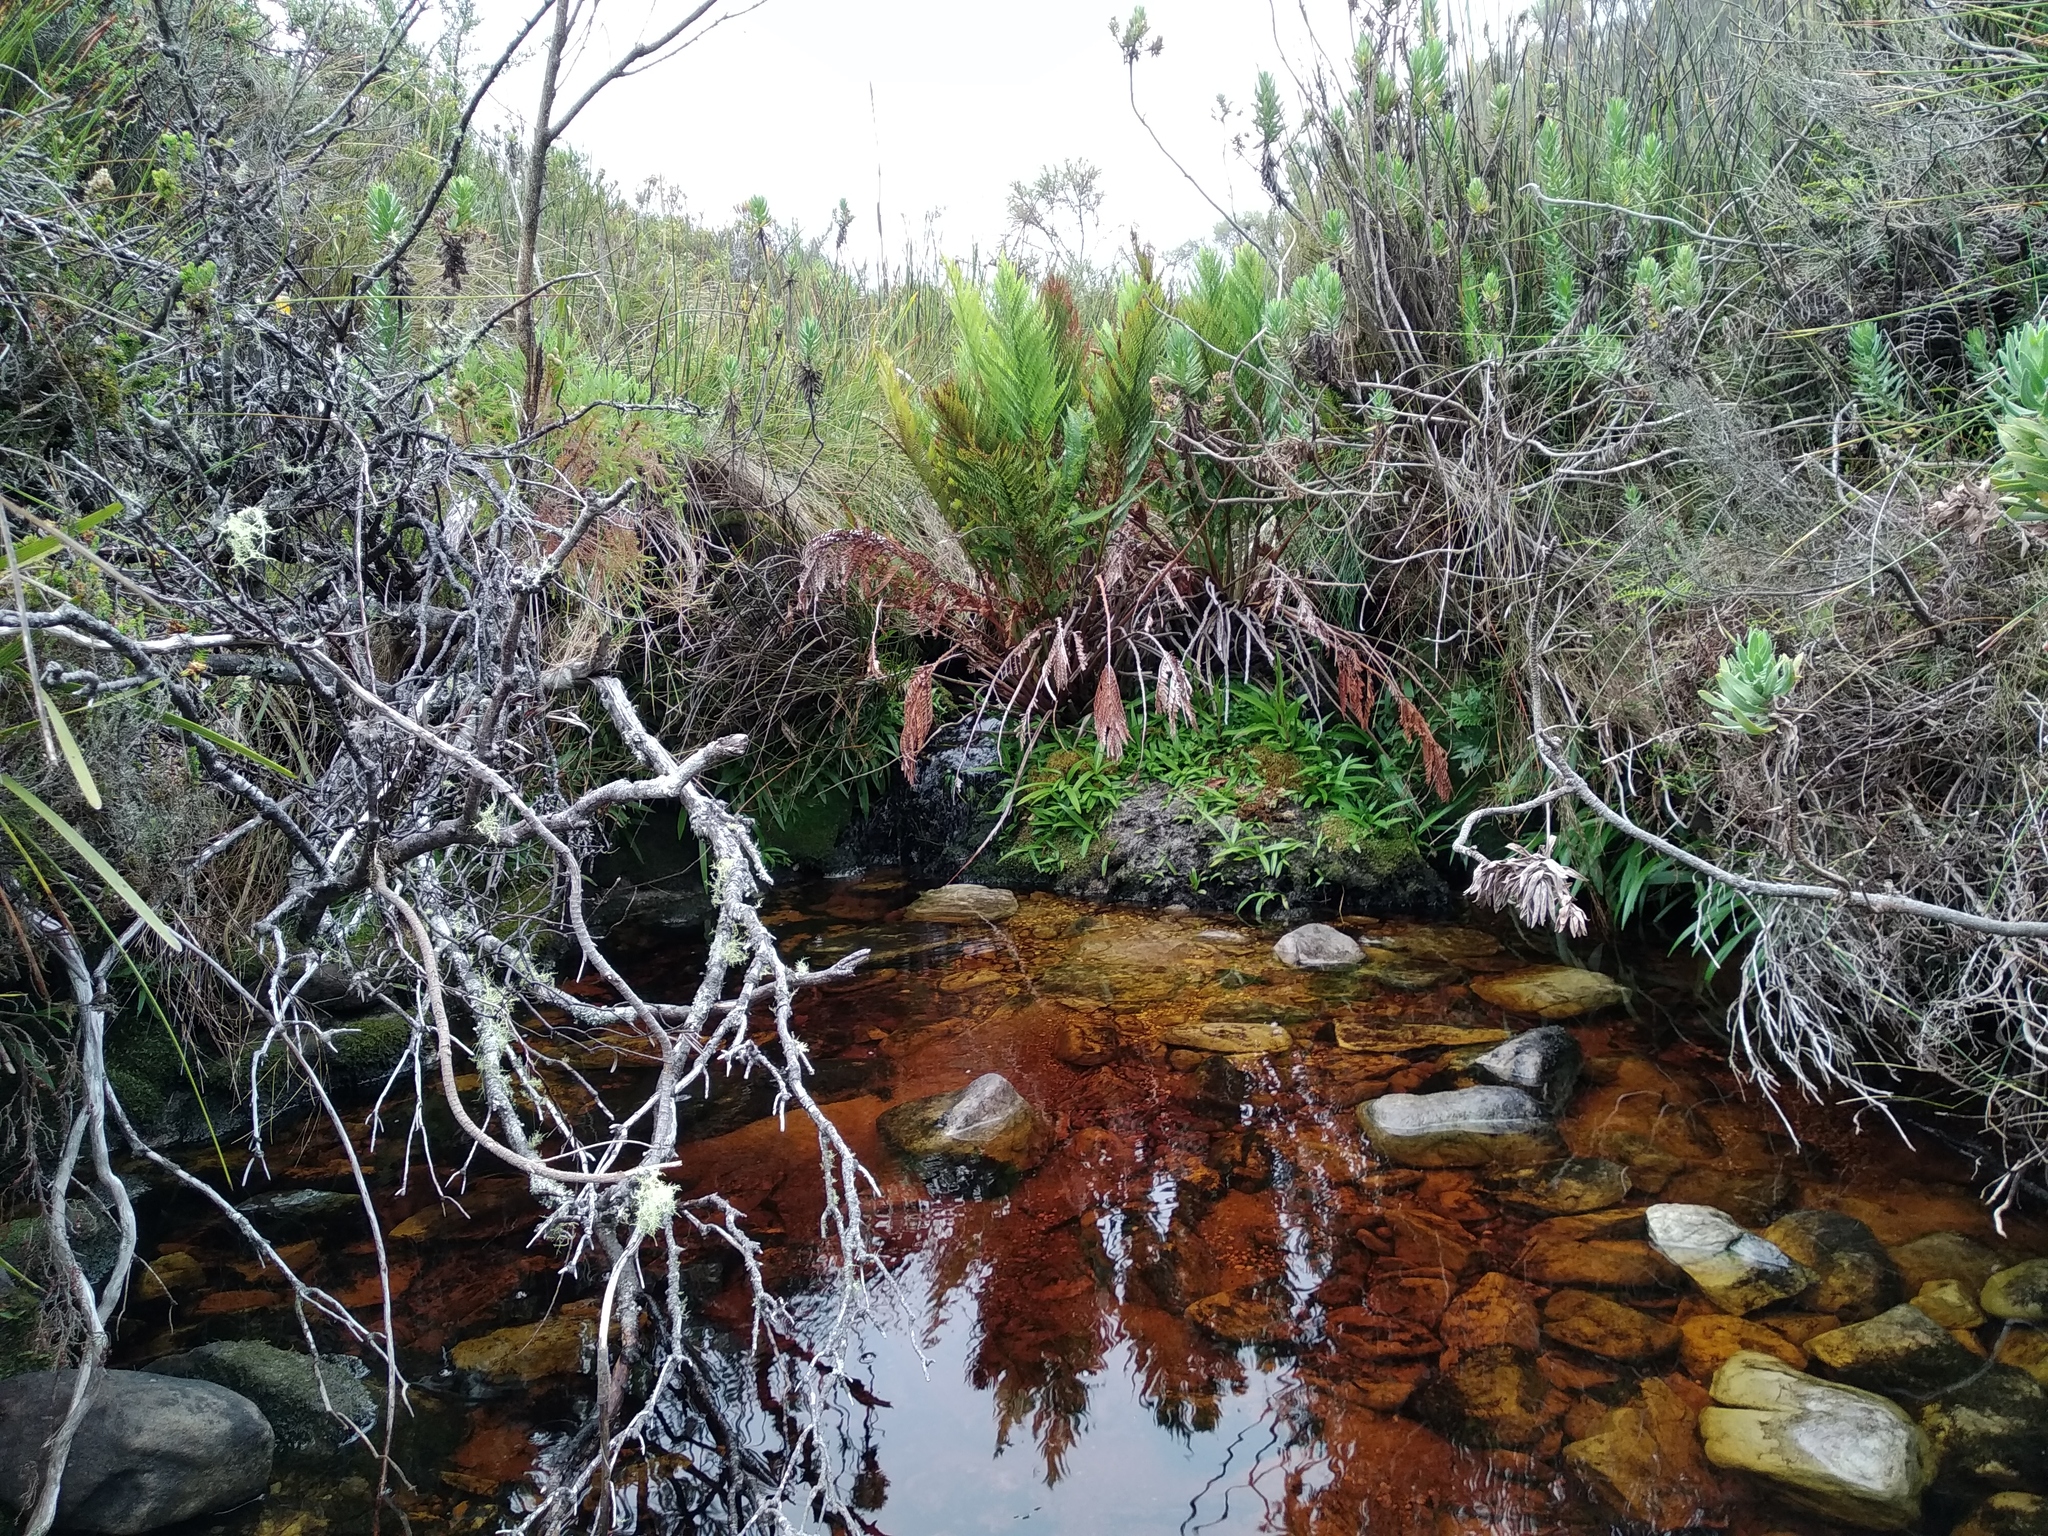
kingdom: Plantae
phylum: Tracheophyta
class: Liliopsida
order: Asparagales
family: Orchidaceae
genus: Disa
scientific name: Disa uniflora
